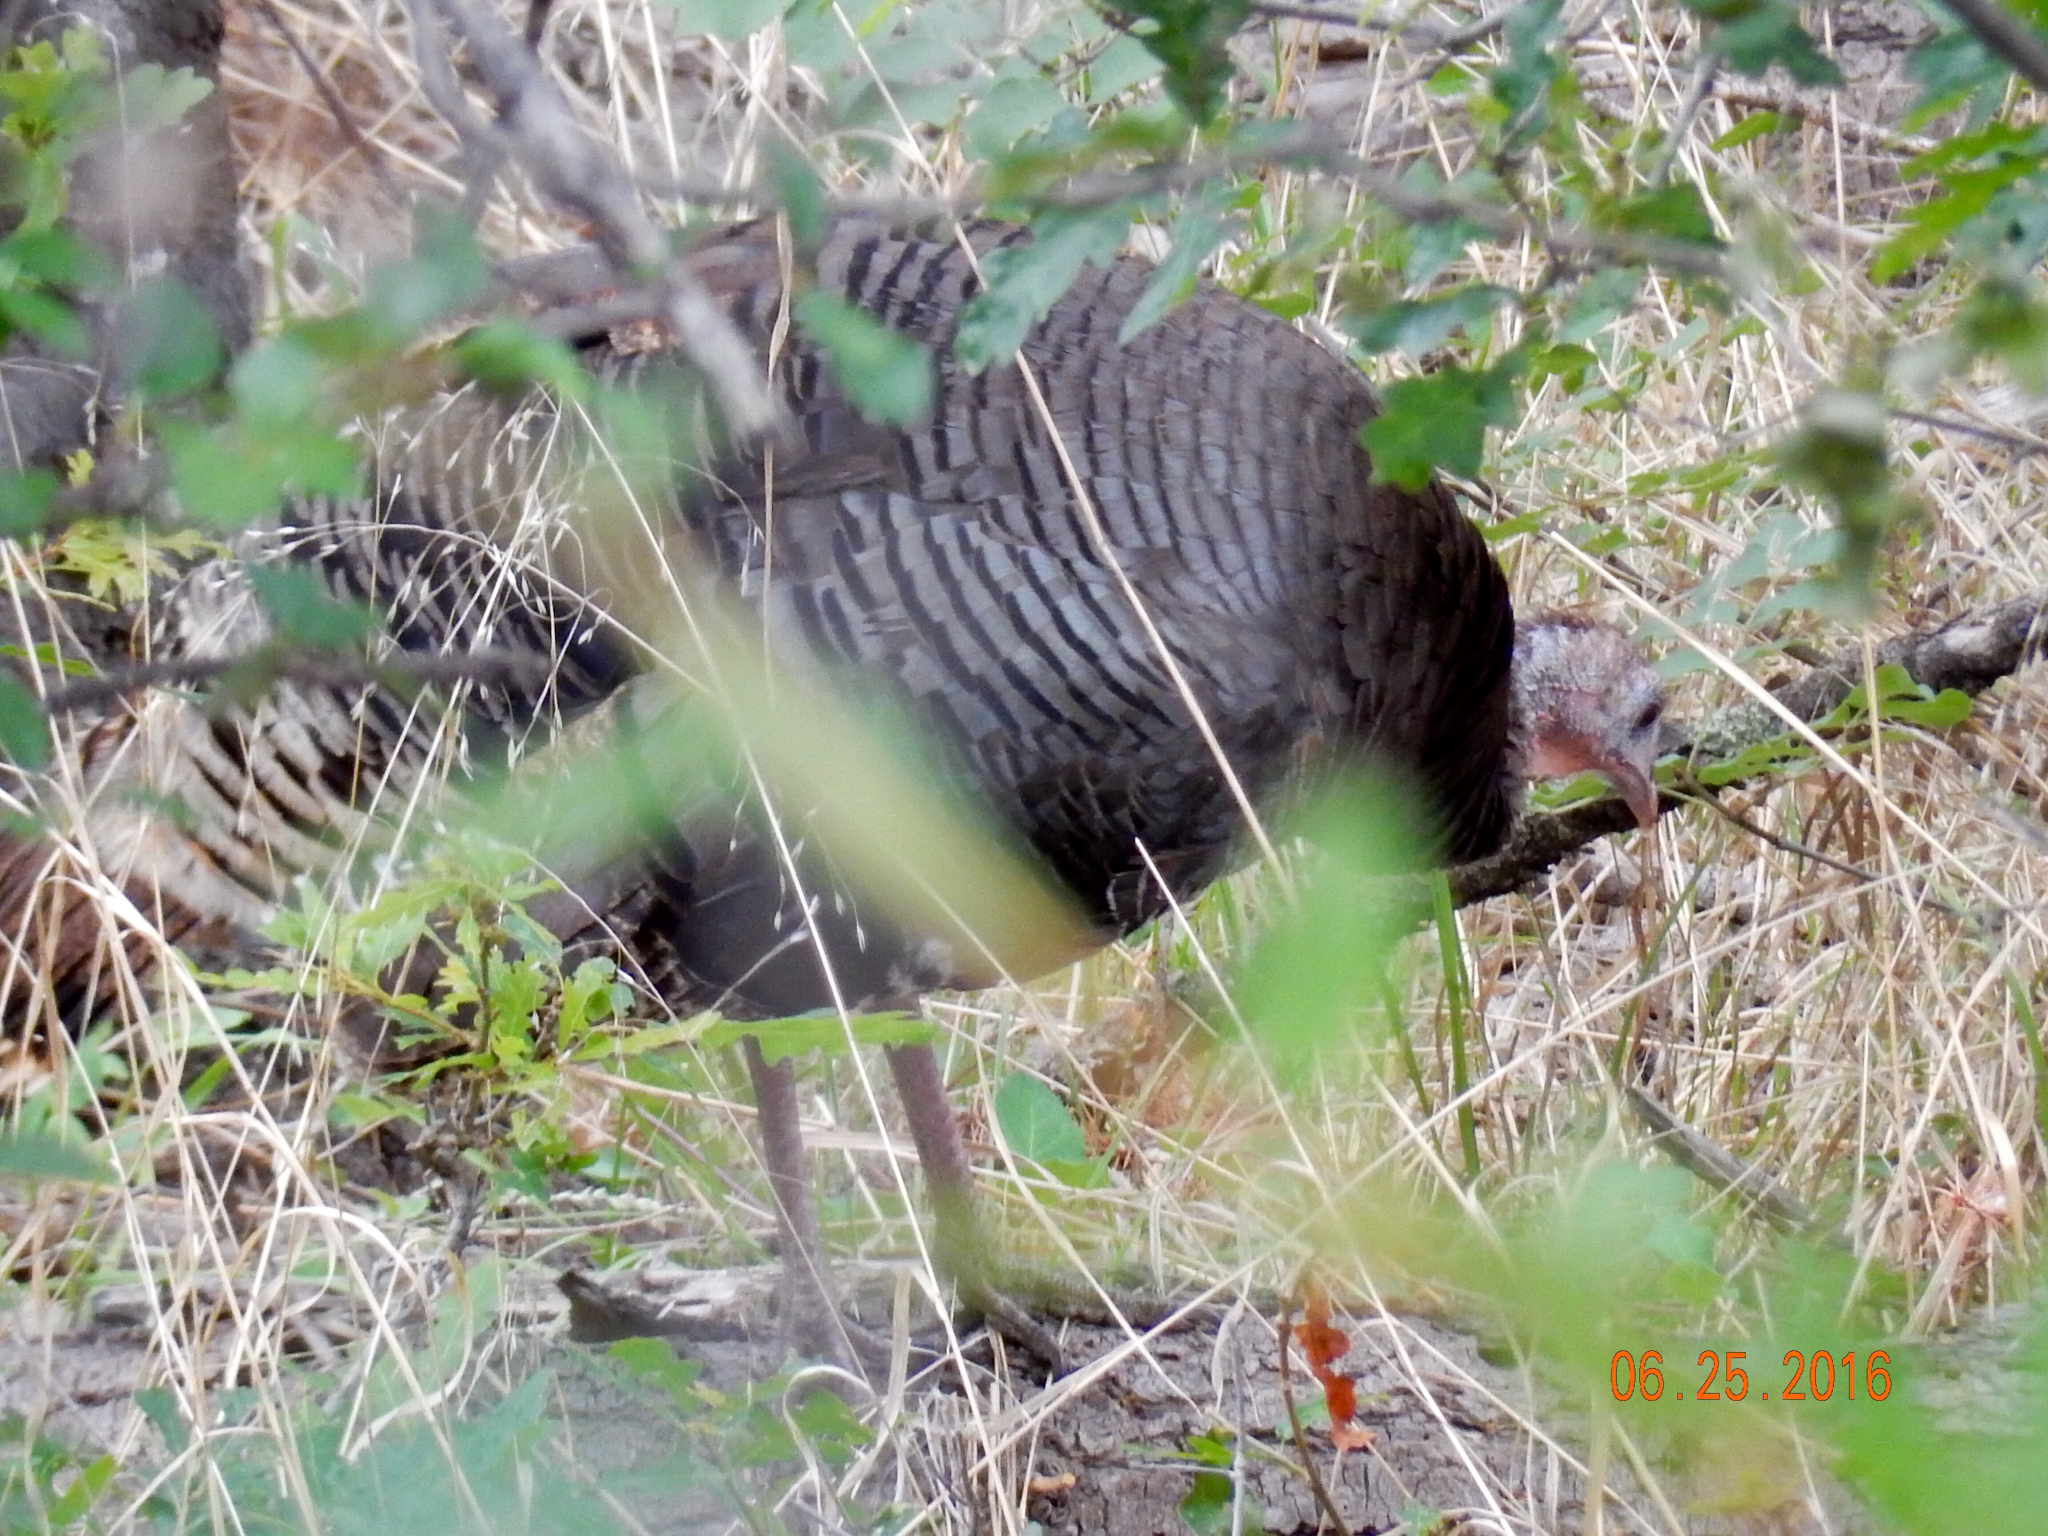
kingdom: Animalia
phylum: Chordata
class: Aves
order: Galliformes
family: Phasianidae
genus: Meleagris
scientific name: Meleagris gallopavo
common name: Wild turkey
